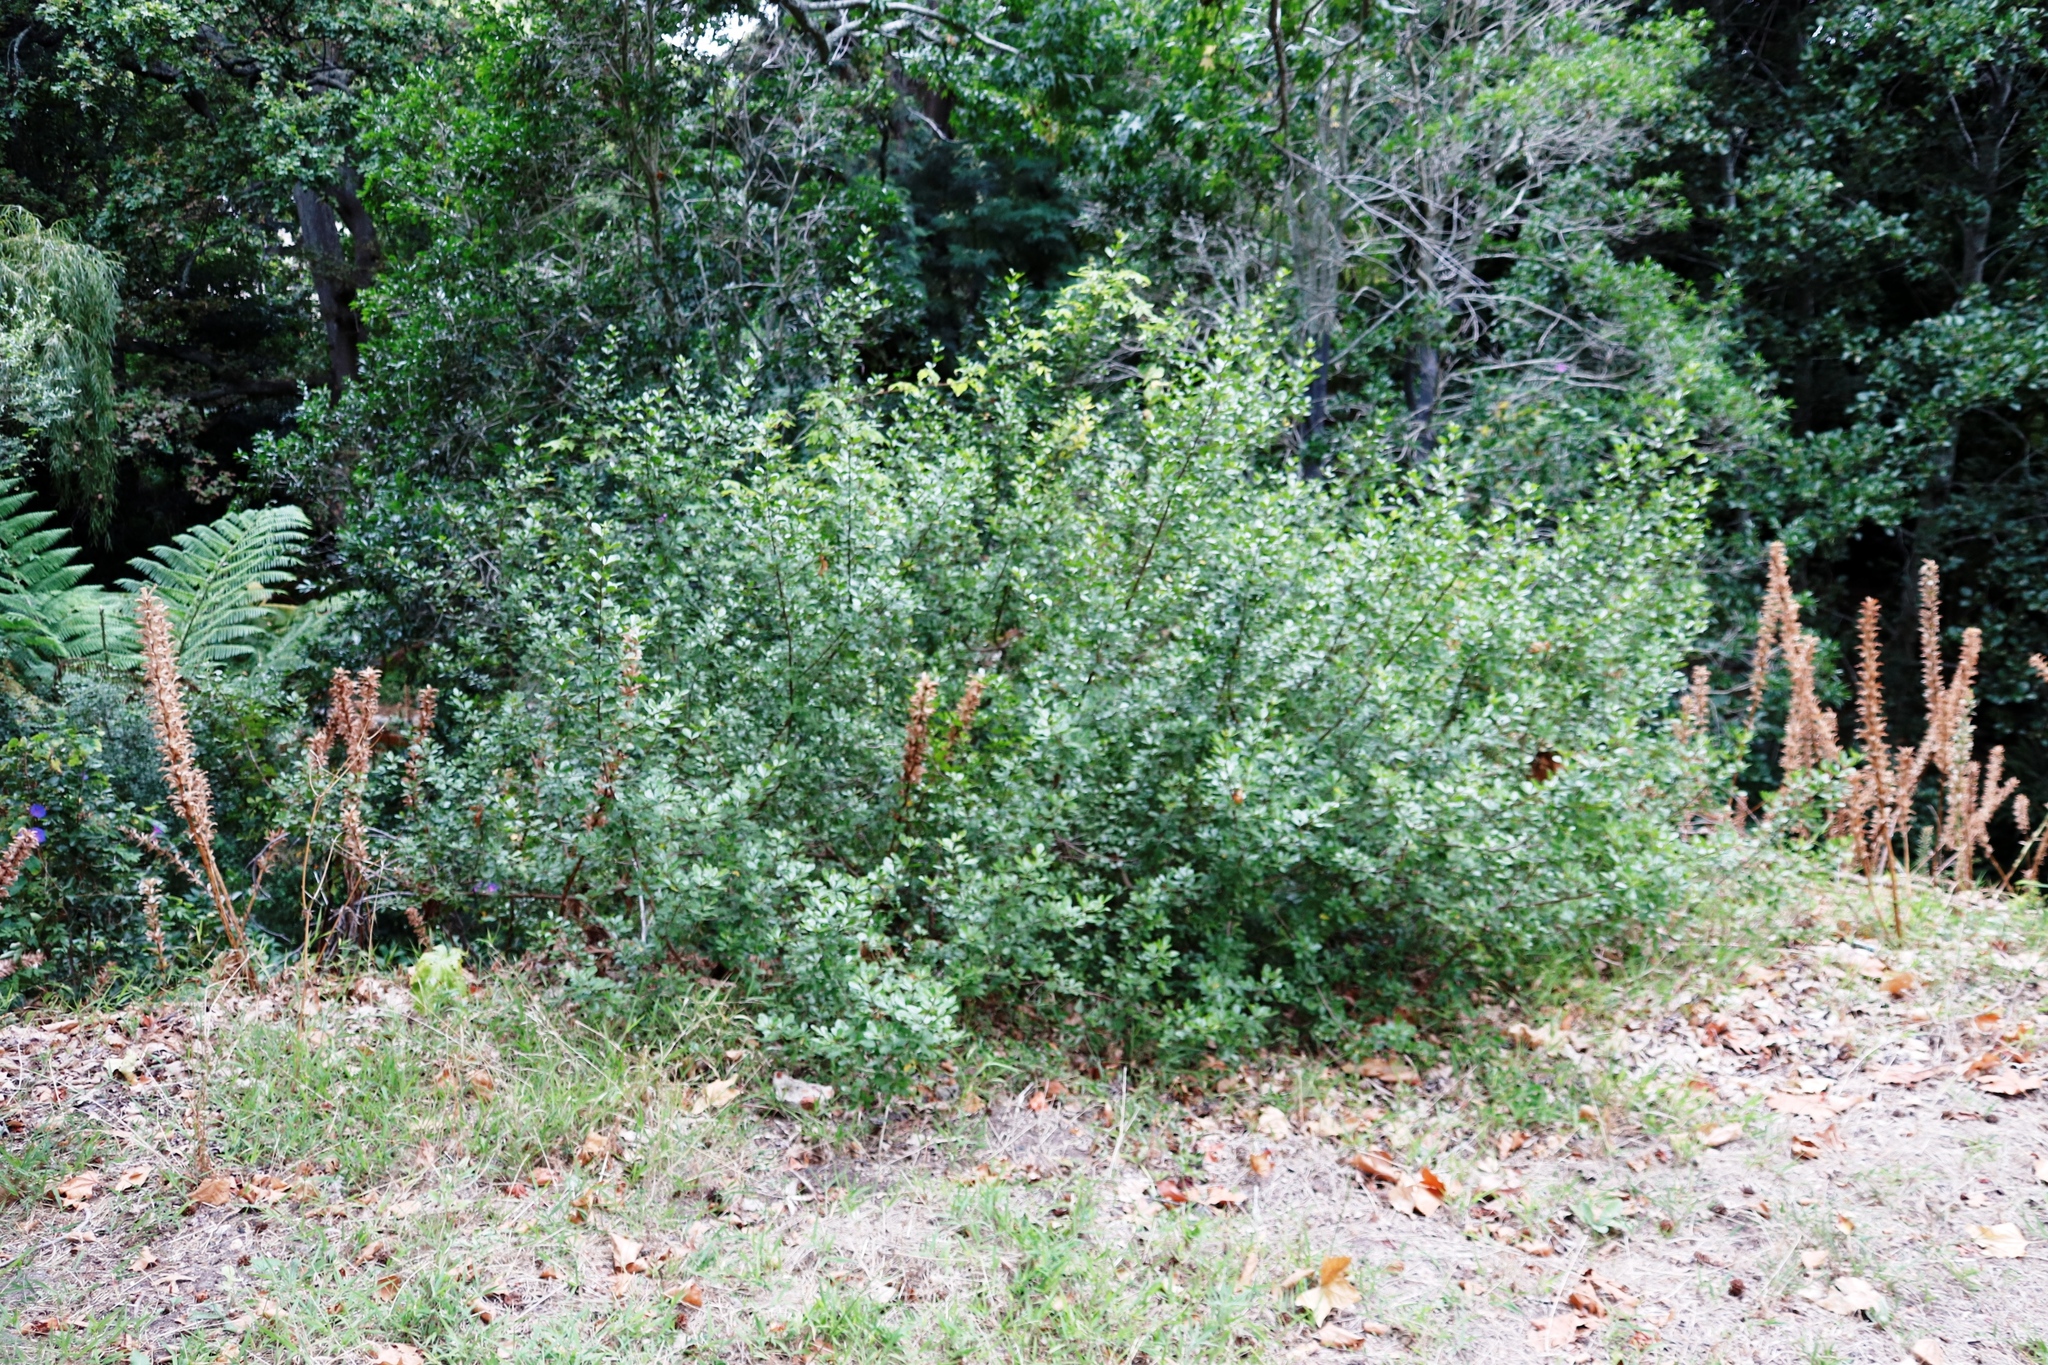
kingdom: Plantae
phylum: Tracheophyta
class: Magnoliopsida
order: Sapindales
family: Anacardiaceae
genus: Searsia
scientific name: Searsia lucida
